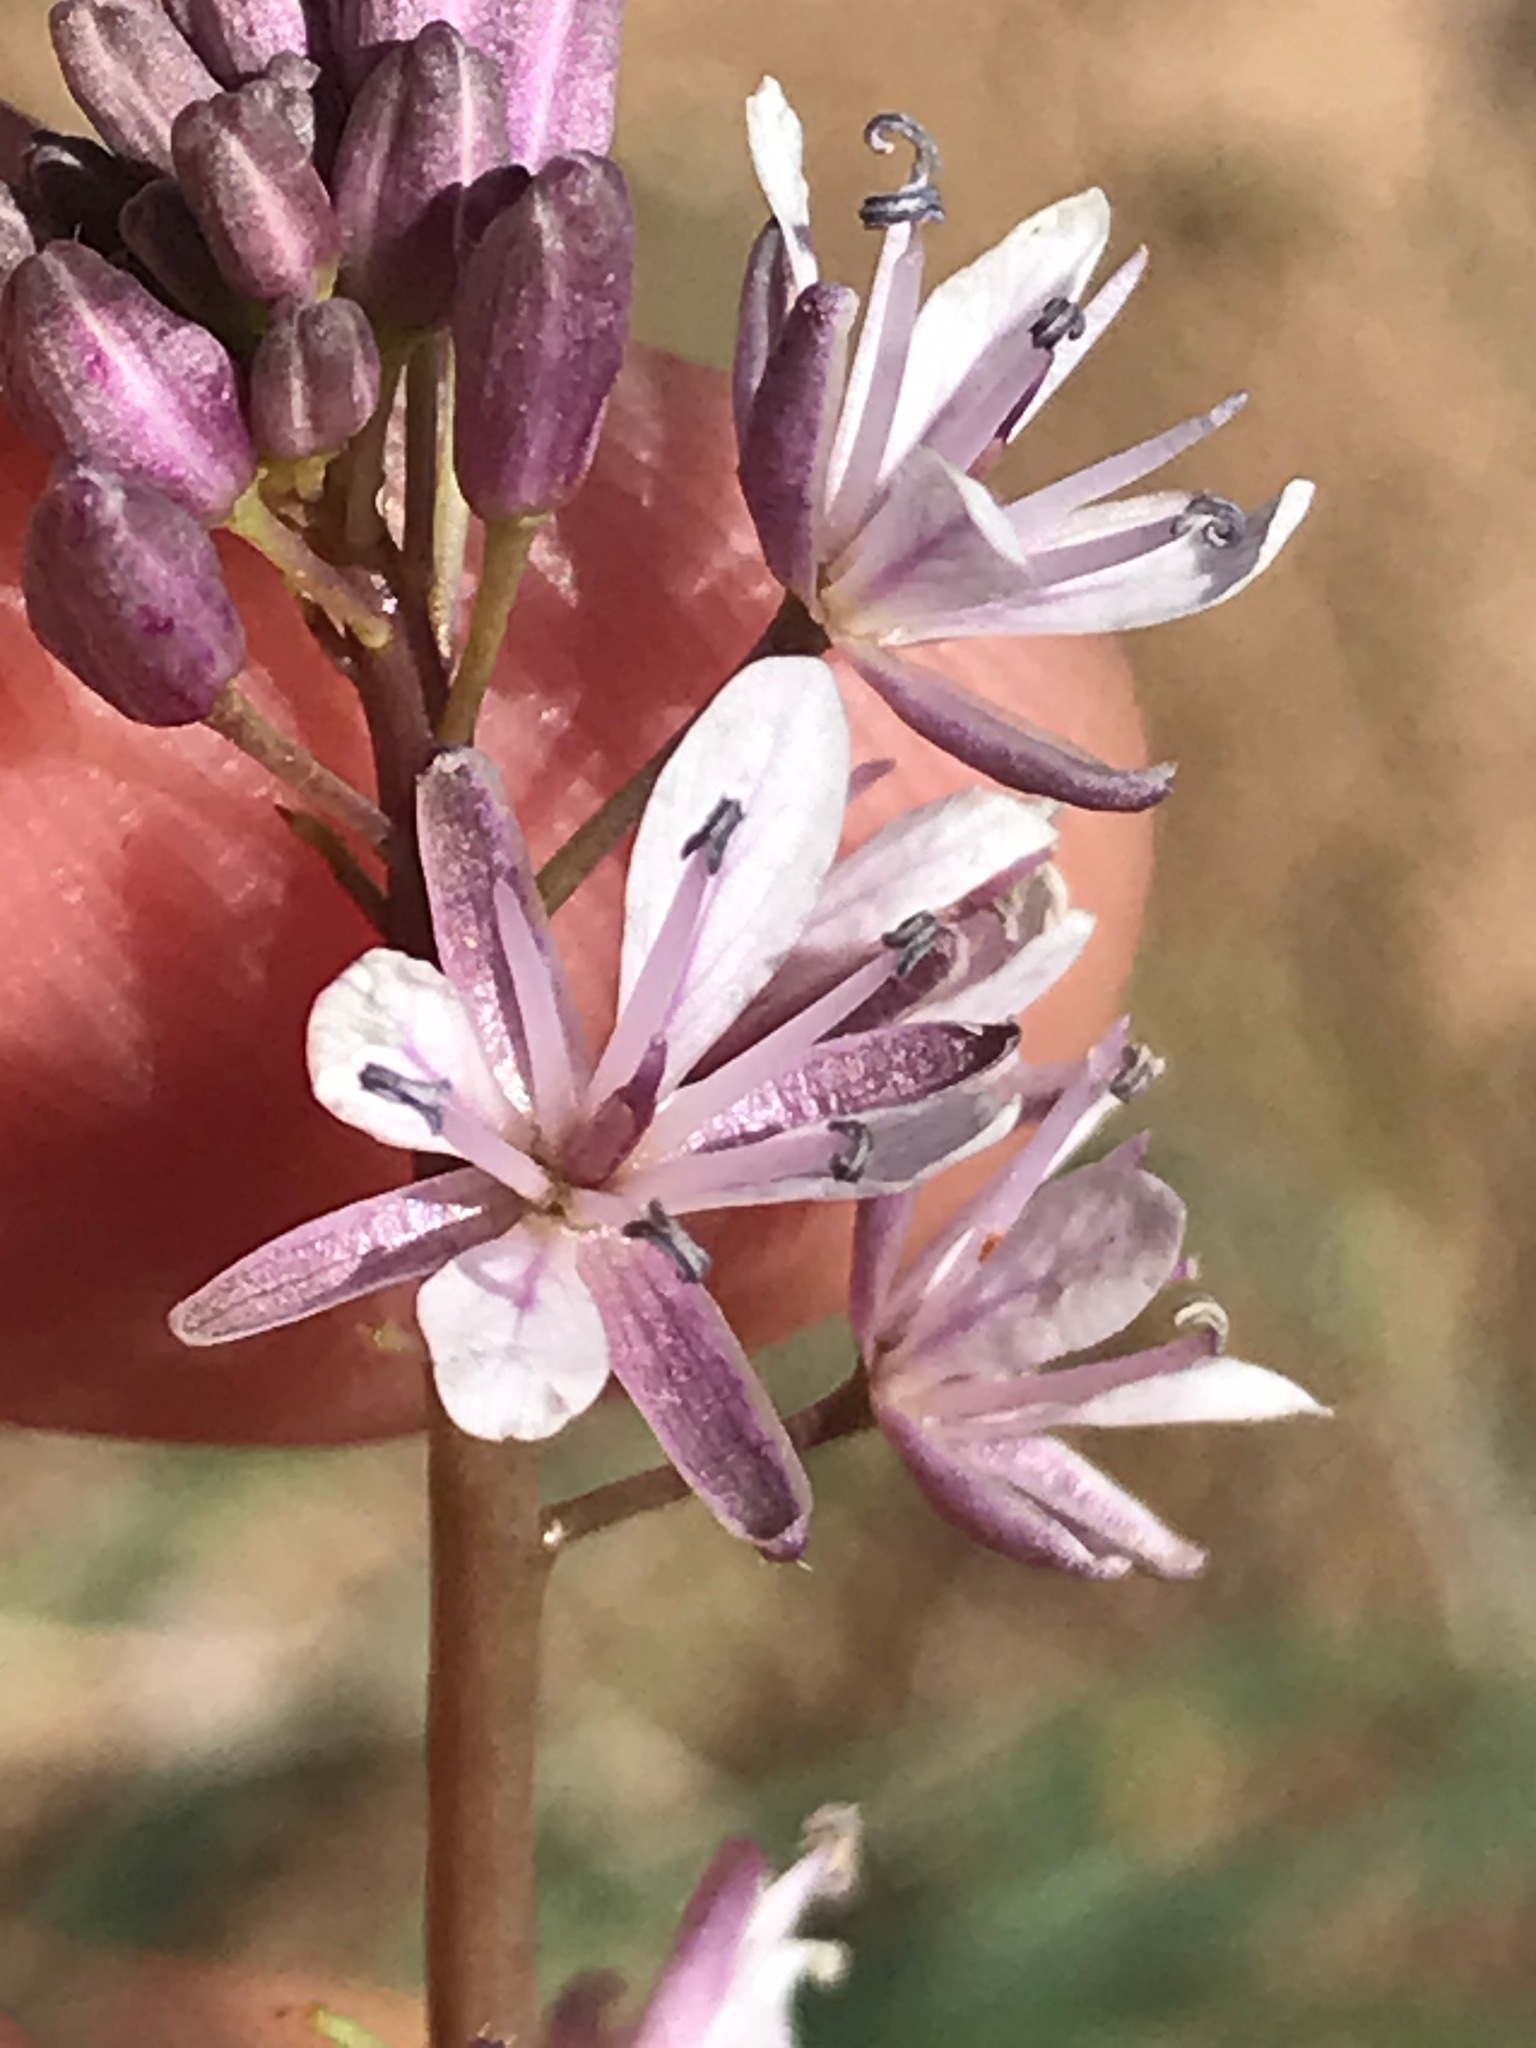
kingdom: Plantae
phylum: Tracheophyta
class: Magnoliopsida
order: Brassicales
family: Brassicaceae
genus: Streptanthus
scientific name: Streptanthus anceps
